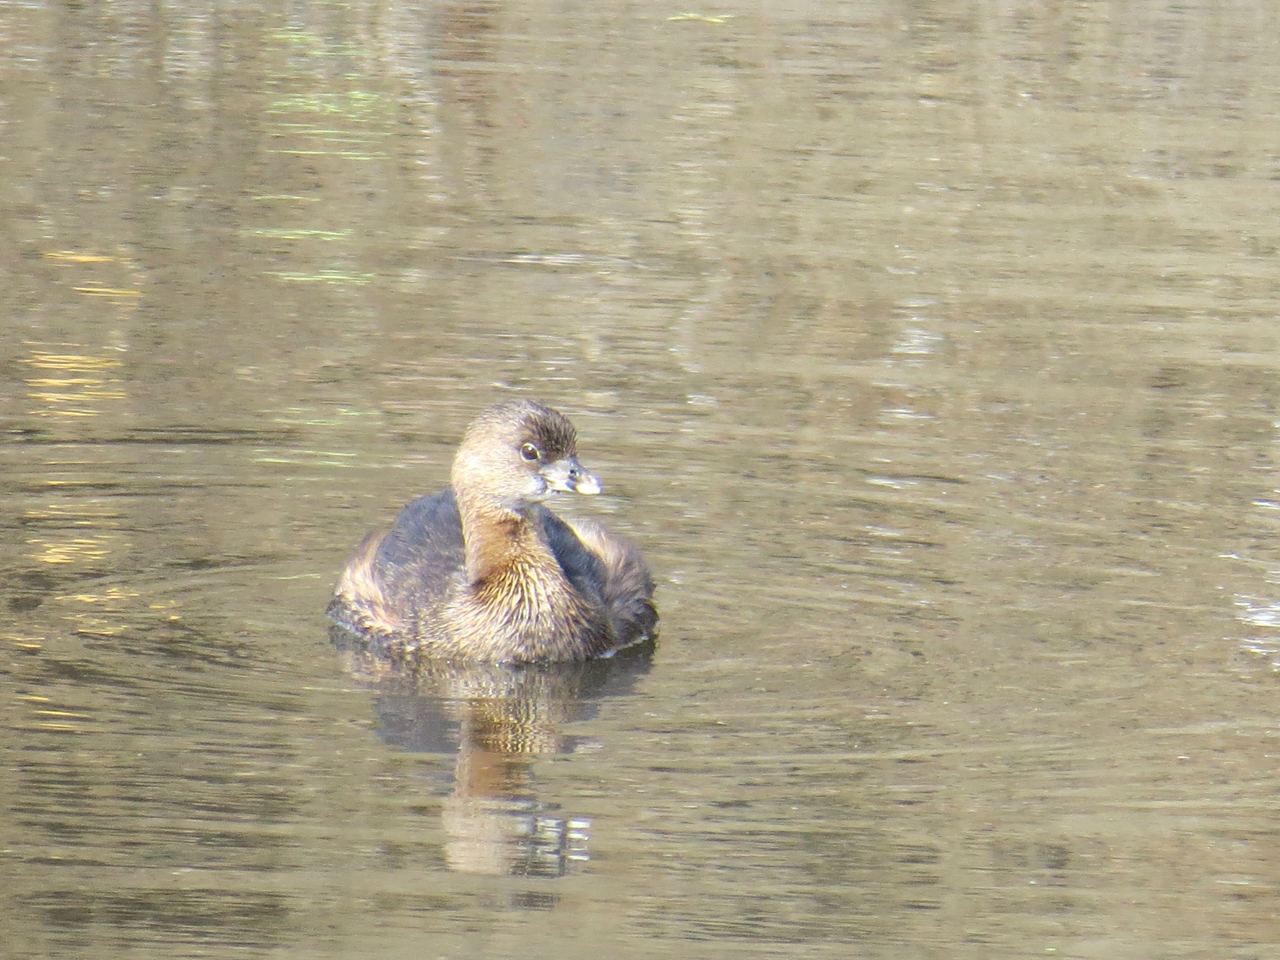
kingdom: Animalia
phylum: Chordata
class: Aves
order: Podicipediformes
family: Podicipedidae
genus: Podilymbus
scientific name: Podilymbus podiceps
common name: Pied-billed grebe
